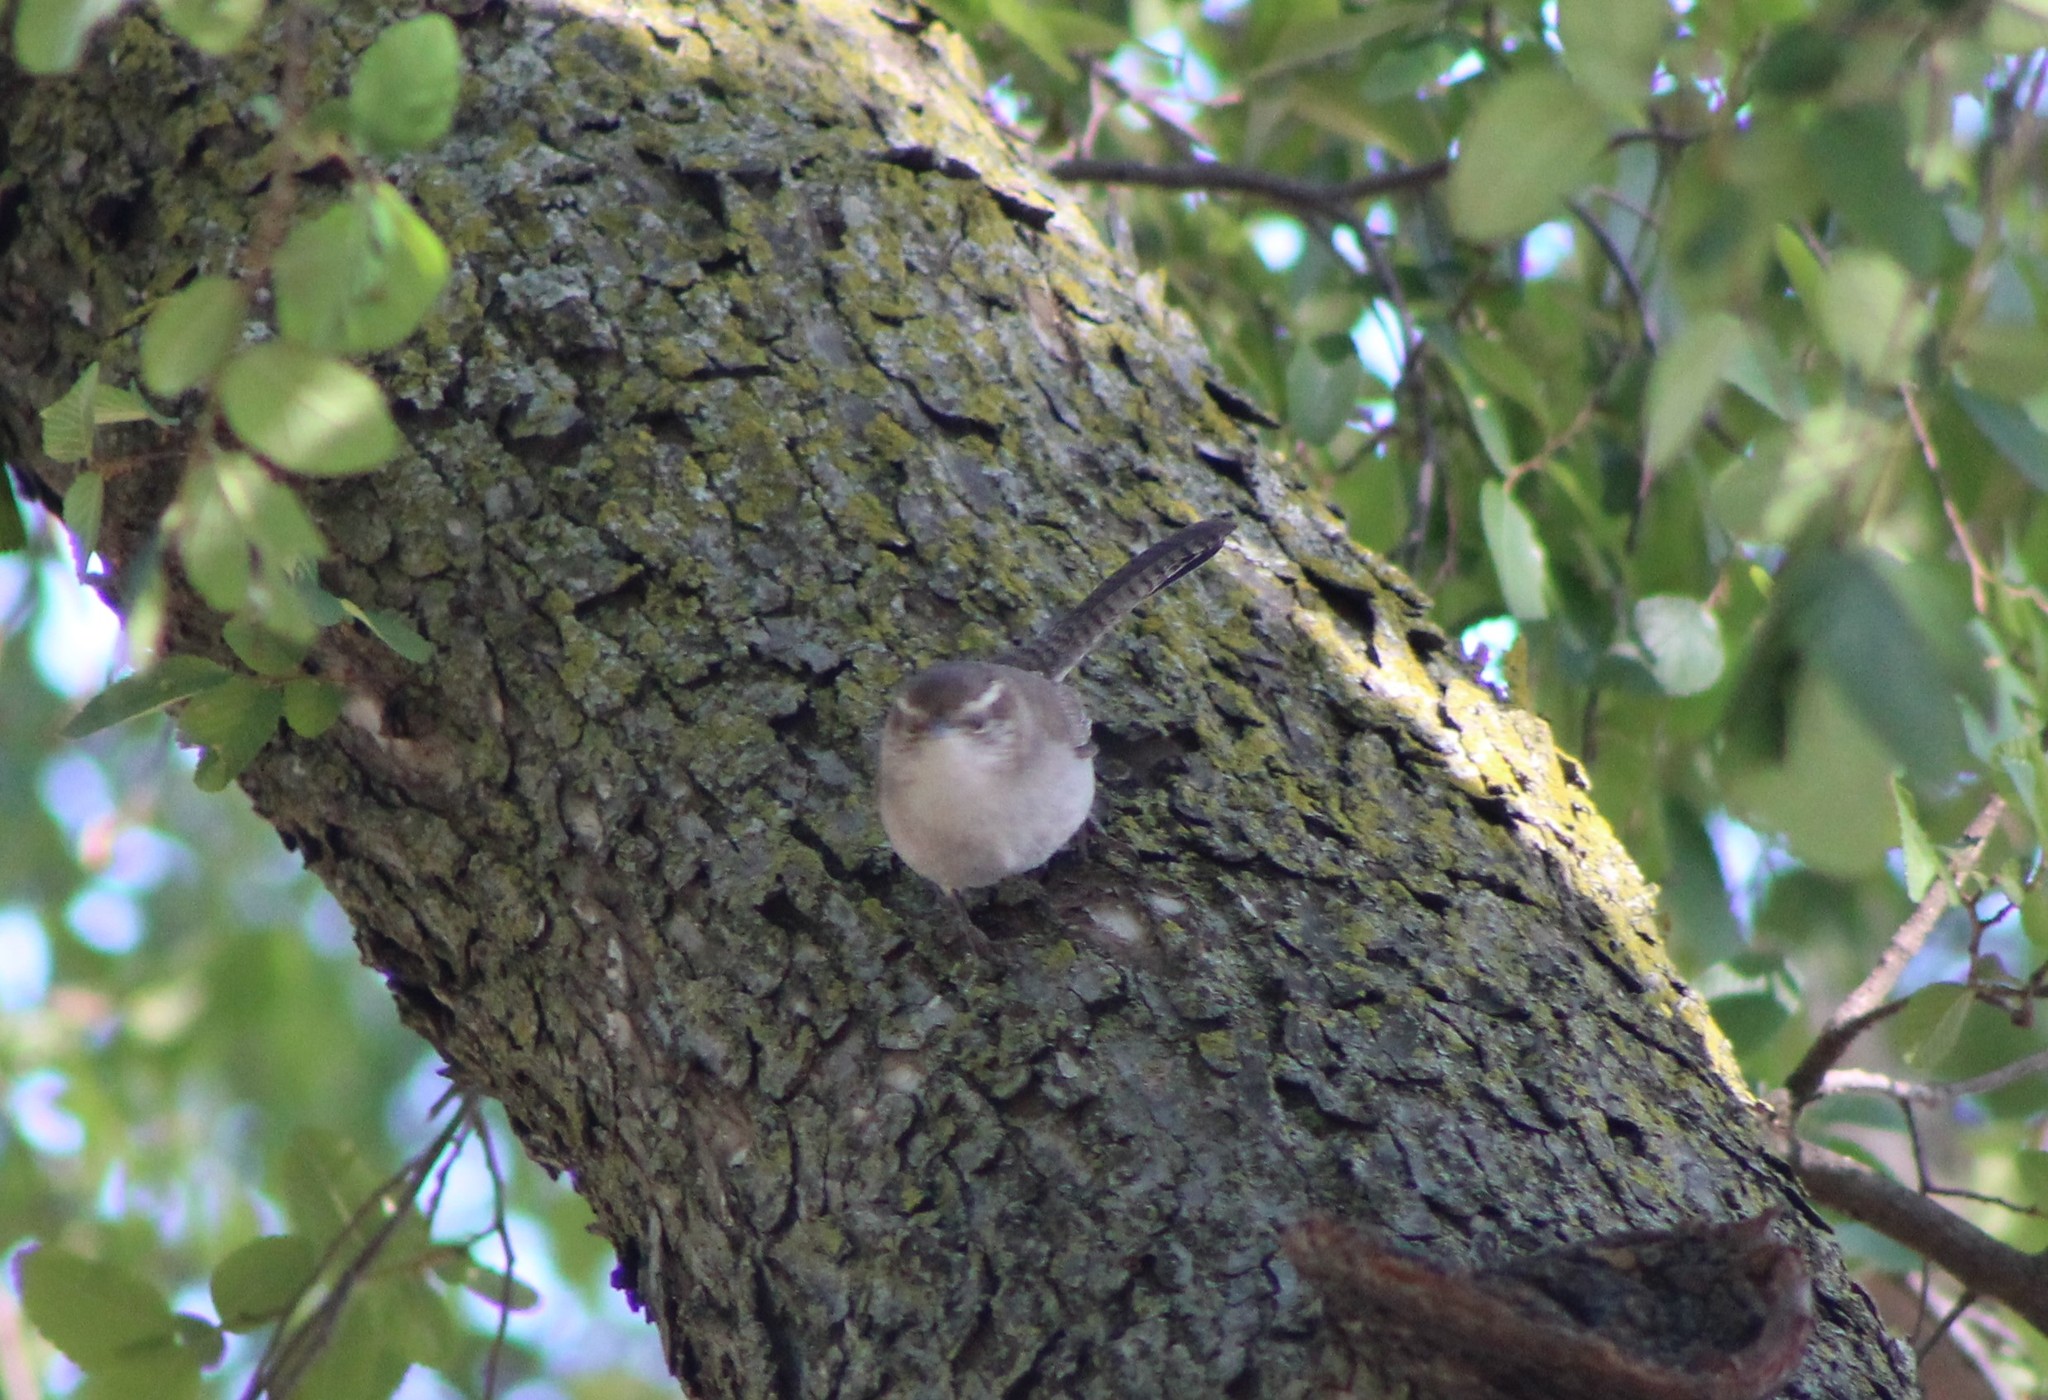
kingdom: Animalia
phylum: Chordata
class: Aves
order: Passeriformes
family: Troglodytidae
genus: Thryomanes
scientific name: Thryomanes bewickii
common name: Bewick's wren
